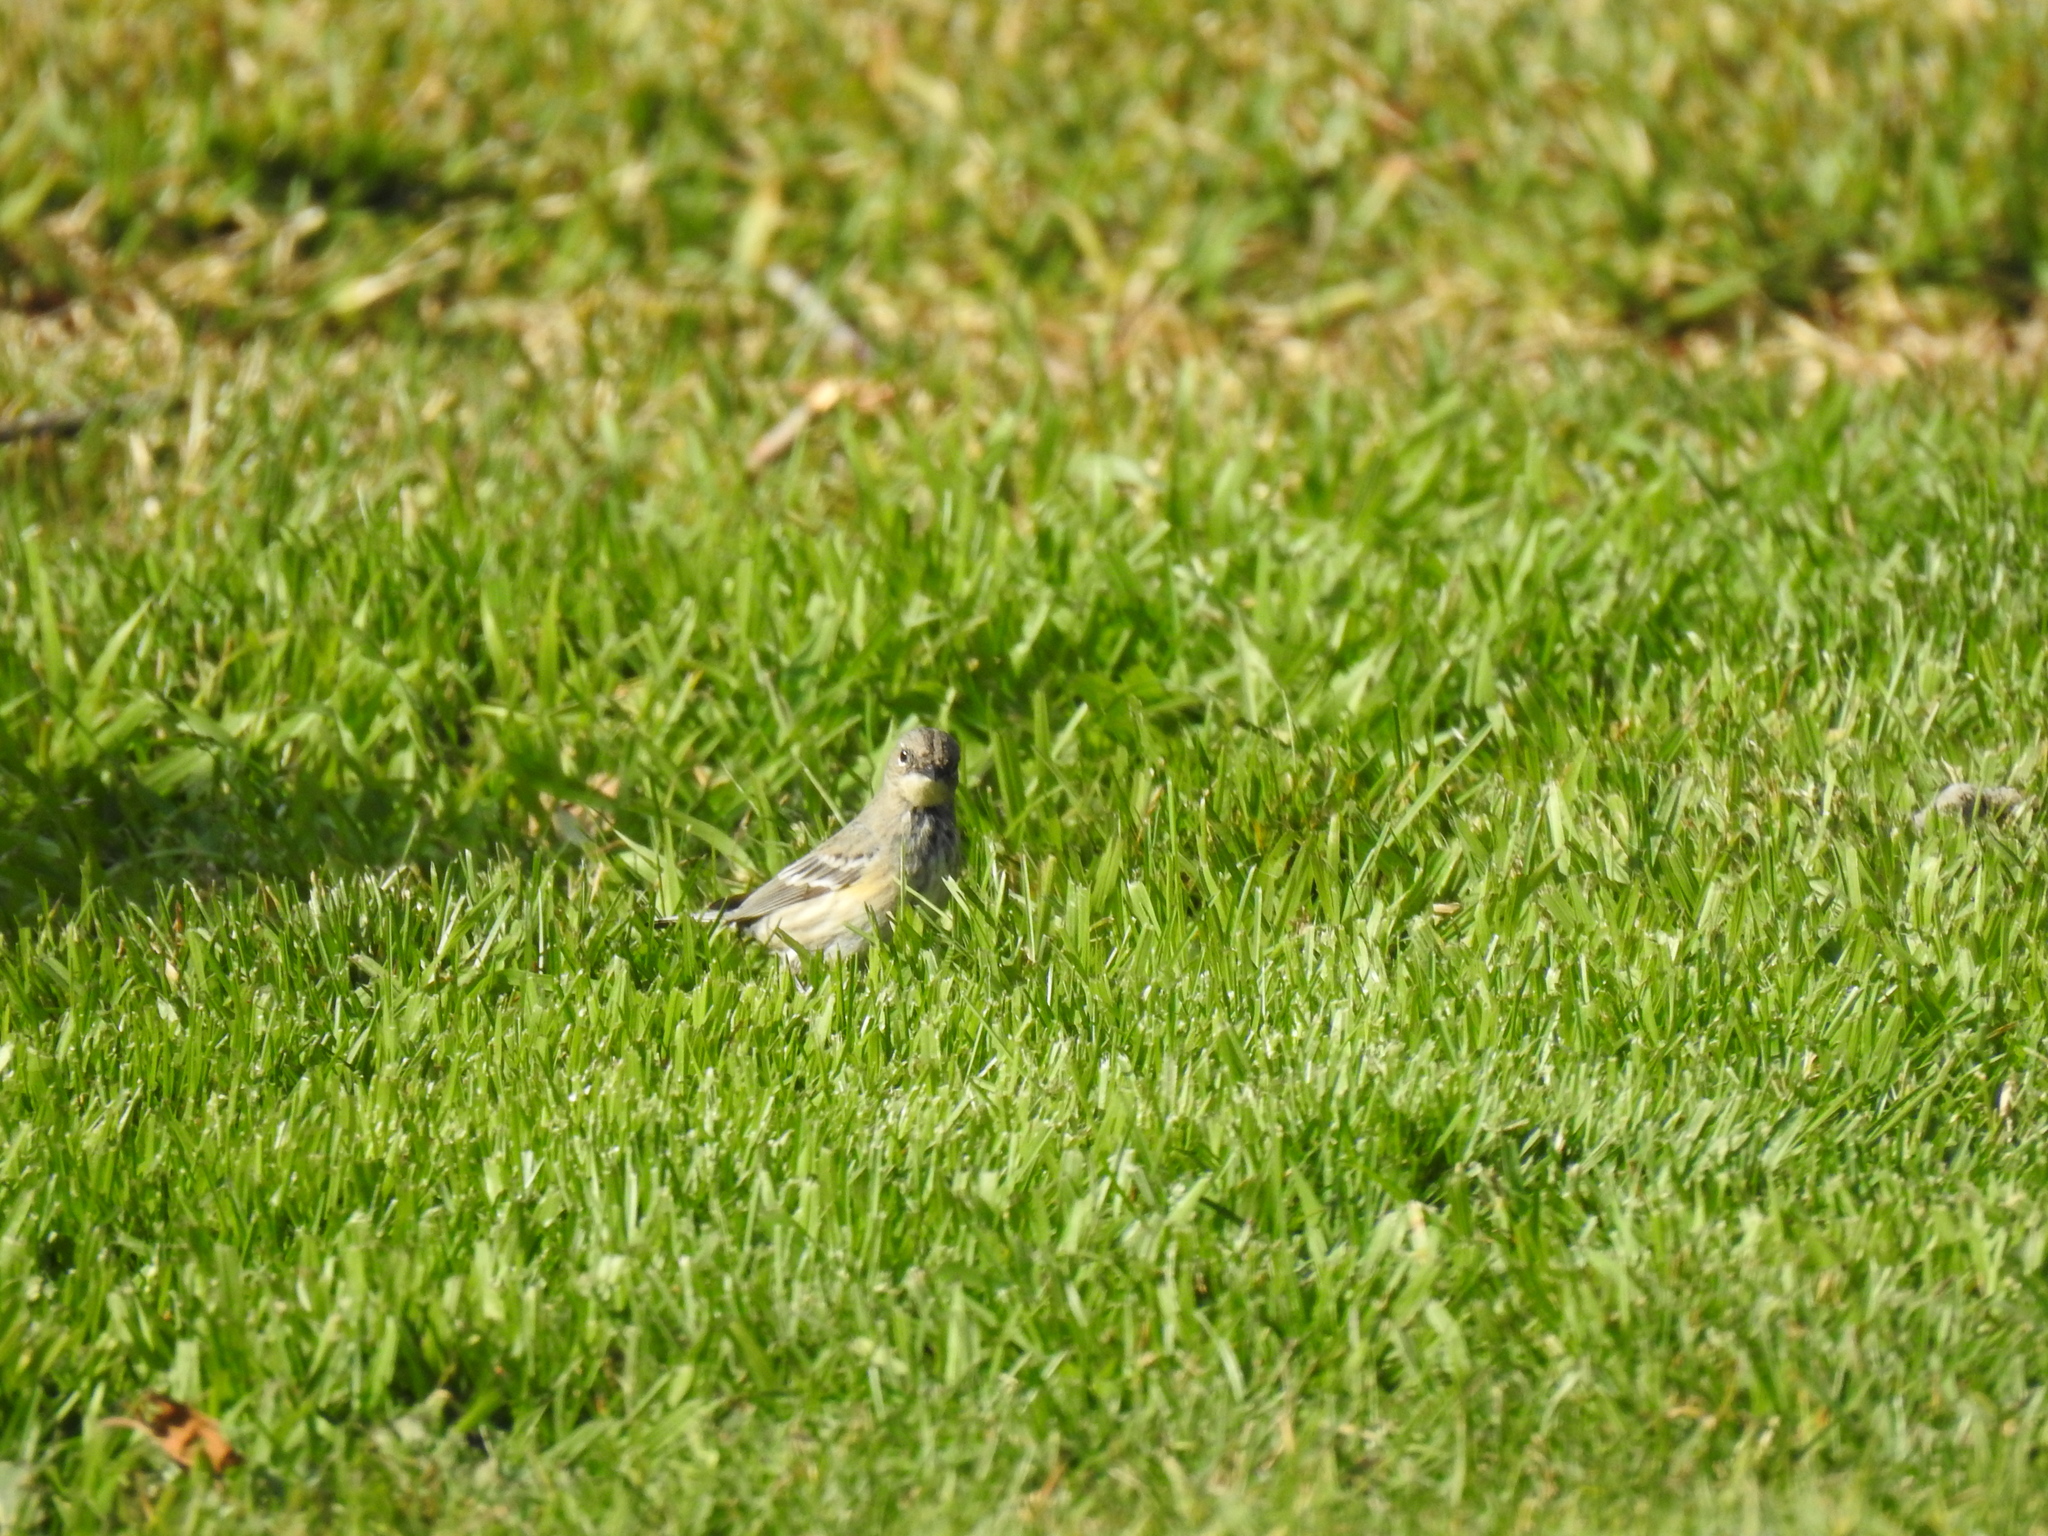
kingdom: Animalia
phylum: Chordata
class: Aves
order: Passeriformes
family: Parulidae
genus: Setophaga
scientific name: Setophaga coronata
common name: Myrtle warbler
